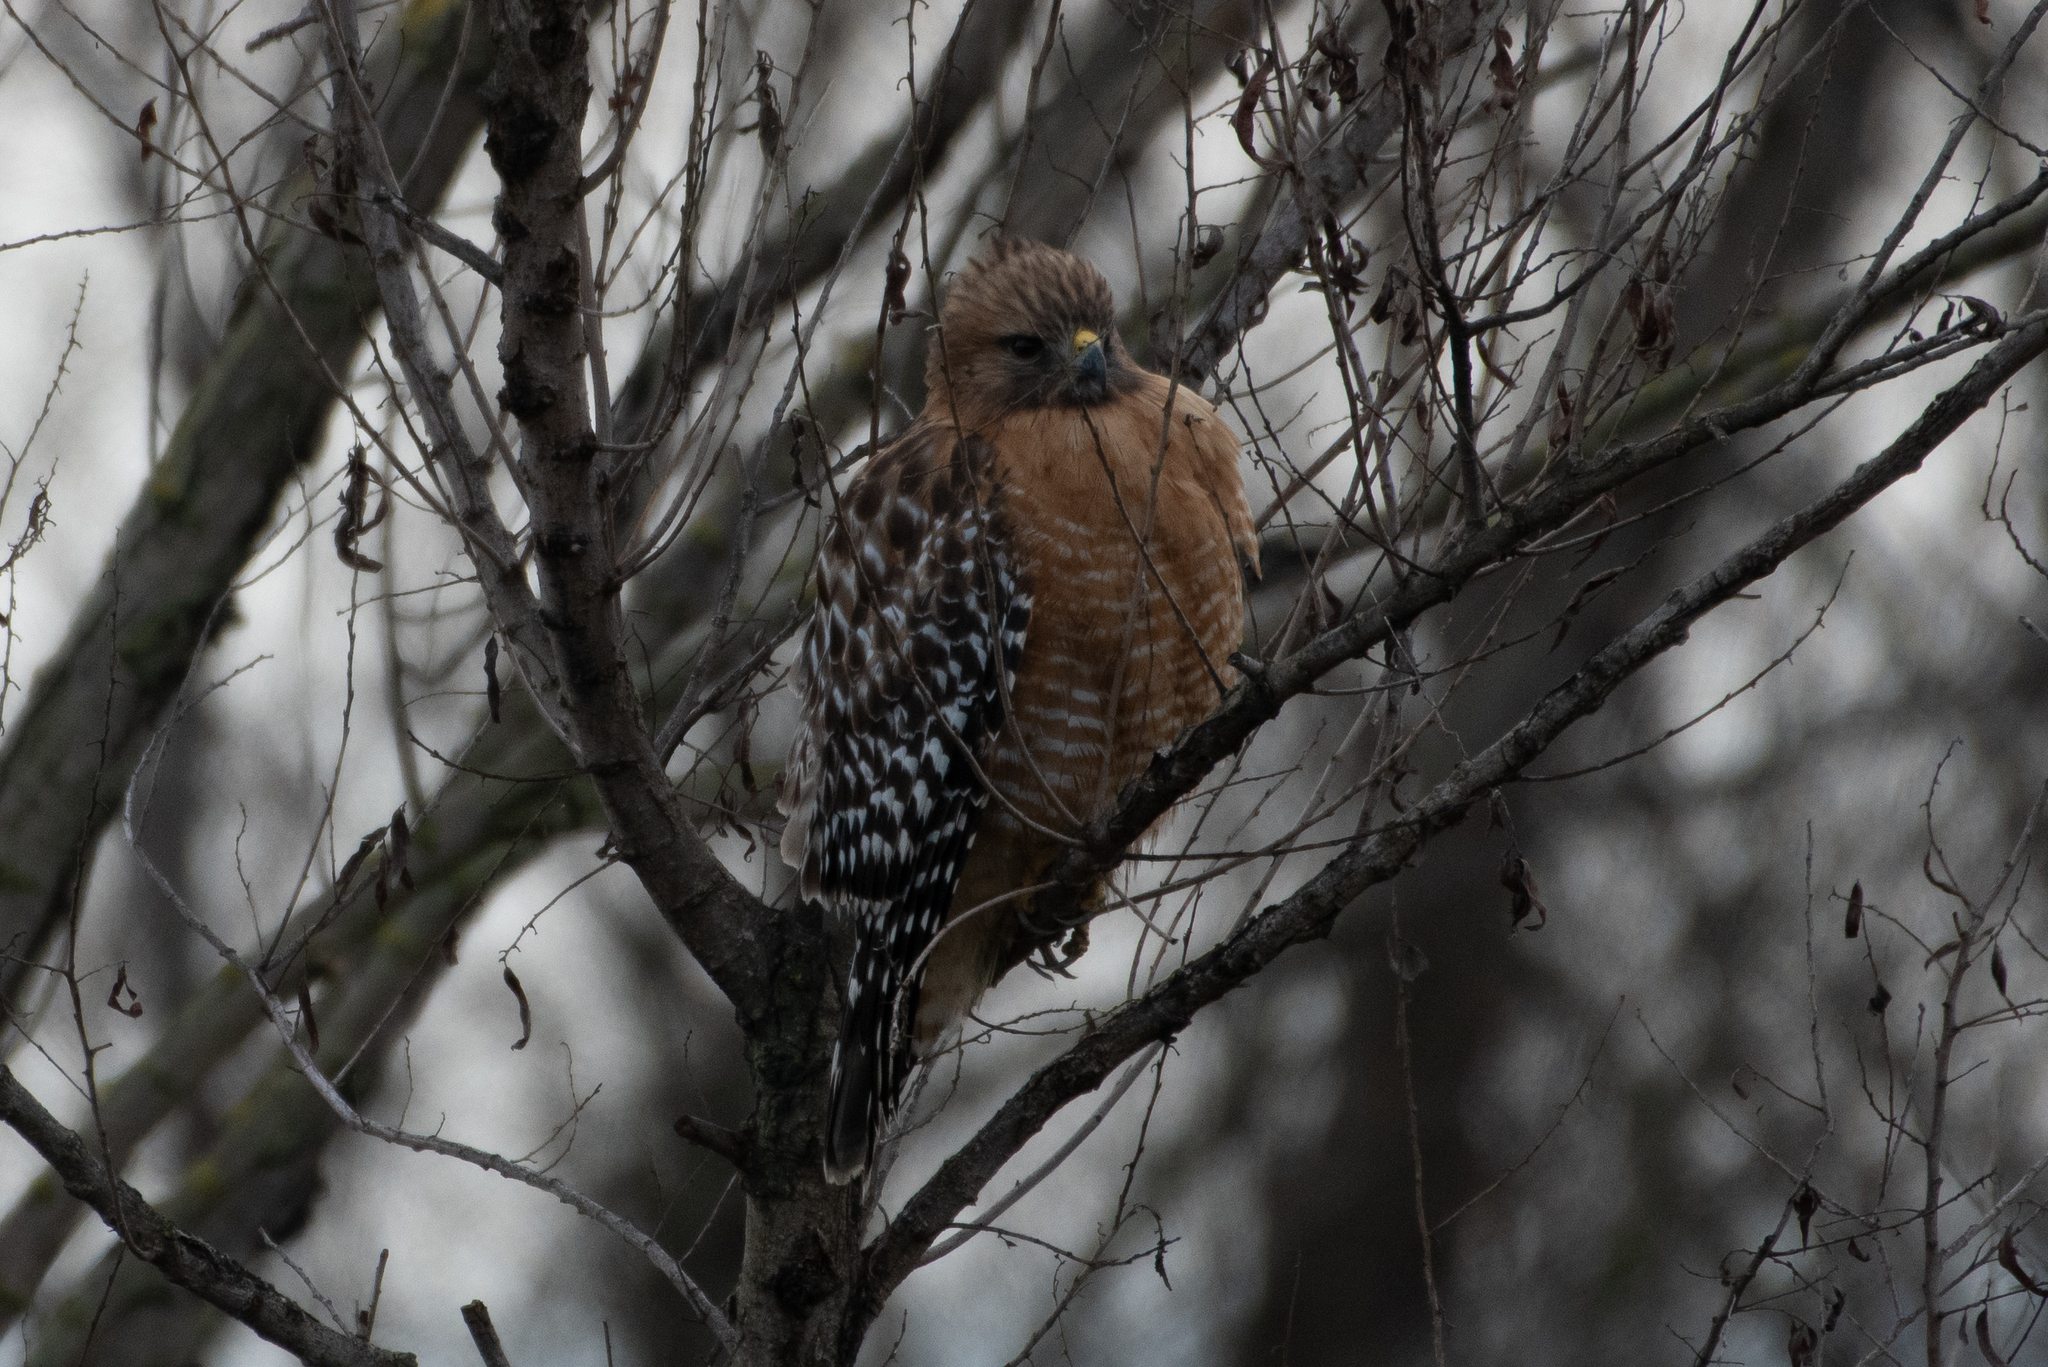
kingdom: Animalia
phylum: Chordata
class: Aves
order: Accipitriformes
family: Accipitridae
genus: Buteo
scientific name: Buteo lineatus
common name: Red-shouldered hawk
